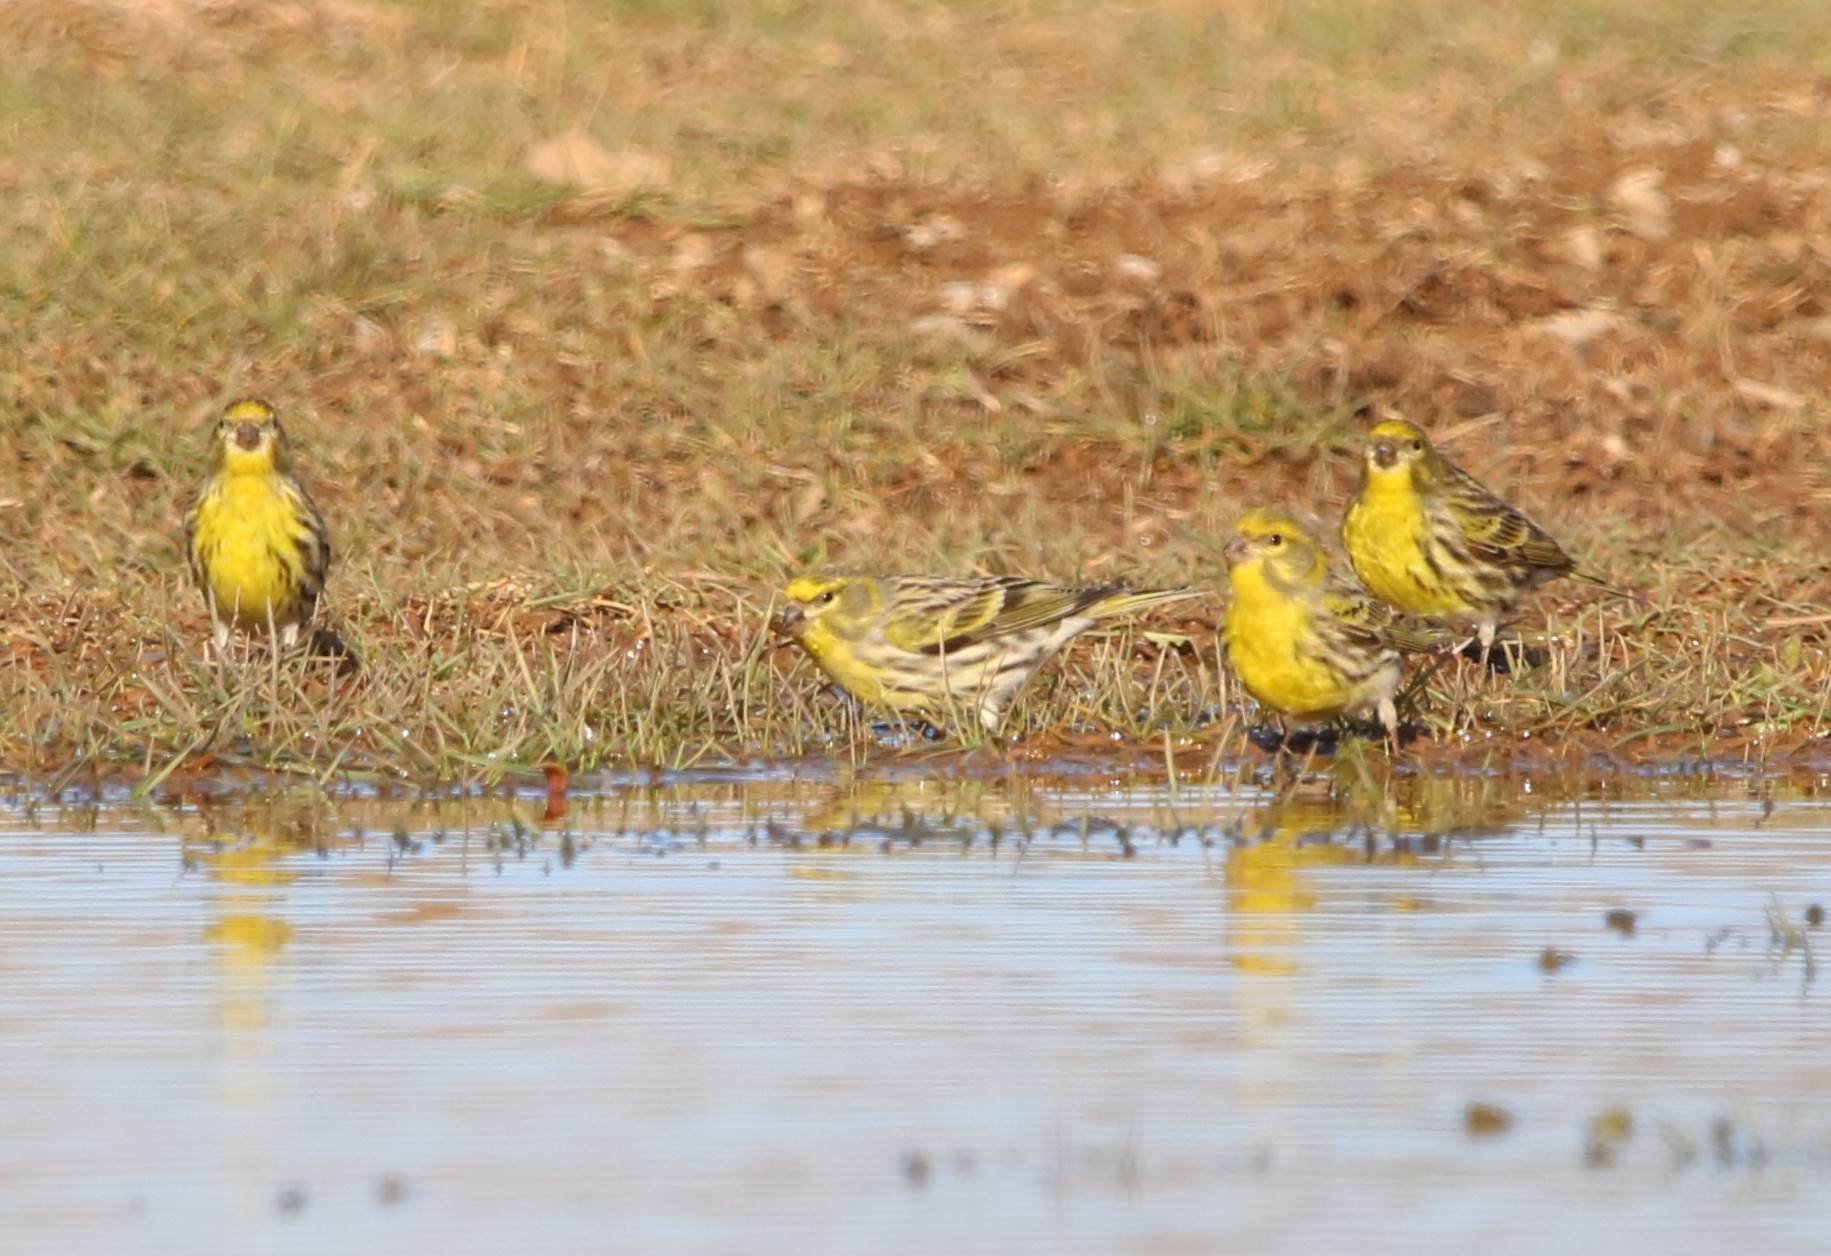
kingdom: Animalia
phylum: Chordata
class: Aves
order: Passeriformes
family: Fringillidae
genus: Serinus
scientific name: Serinus serinus
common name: European serin
